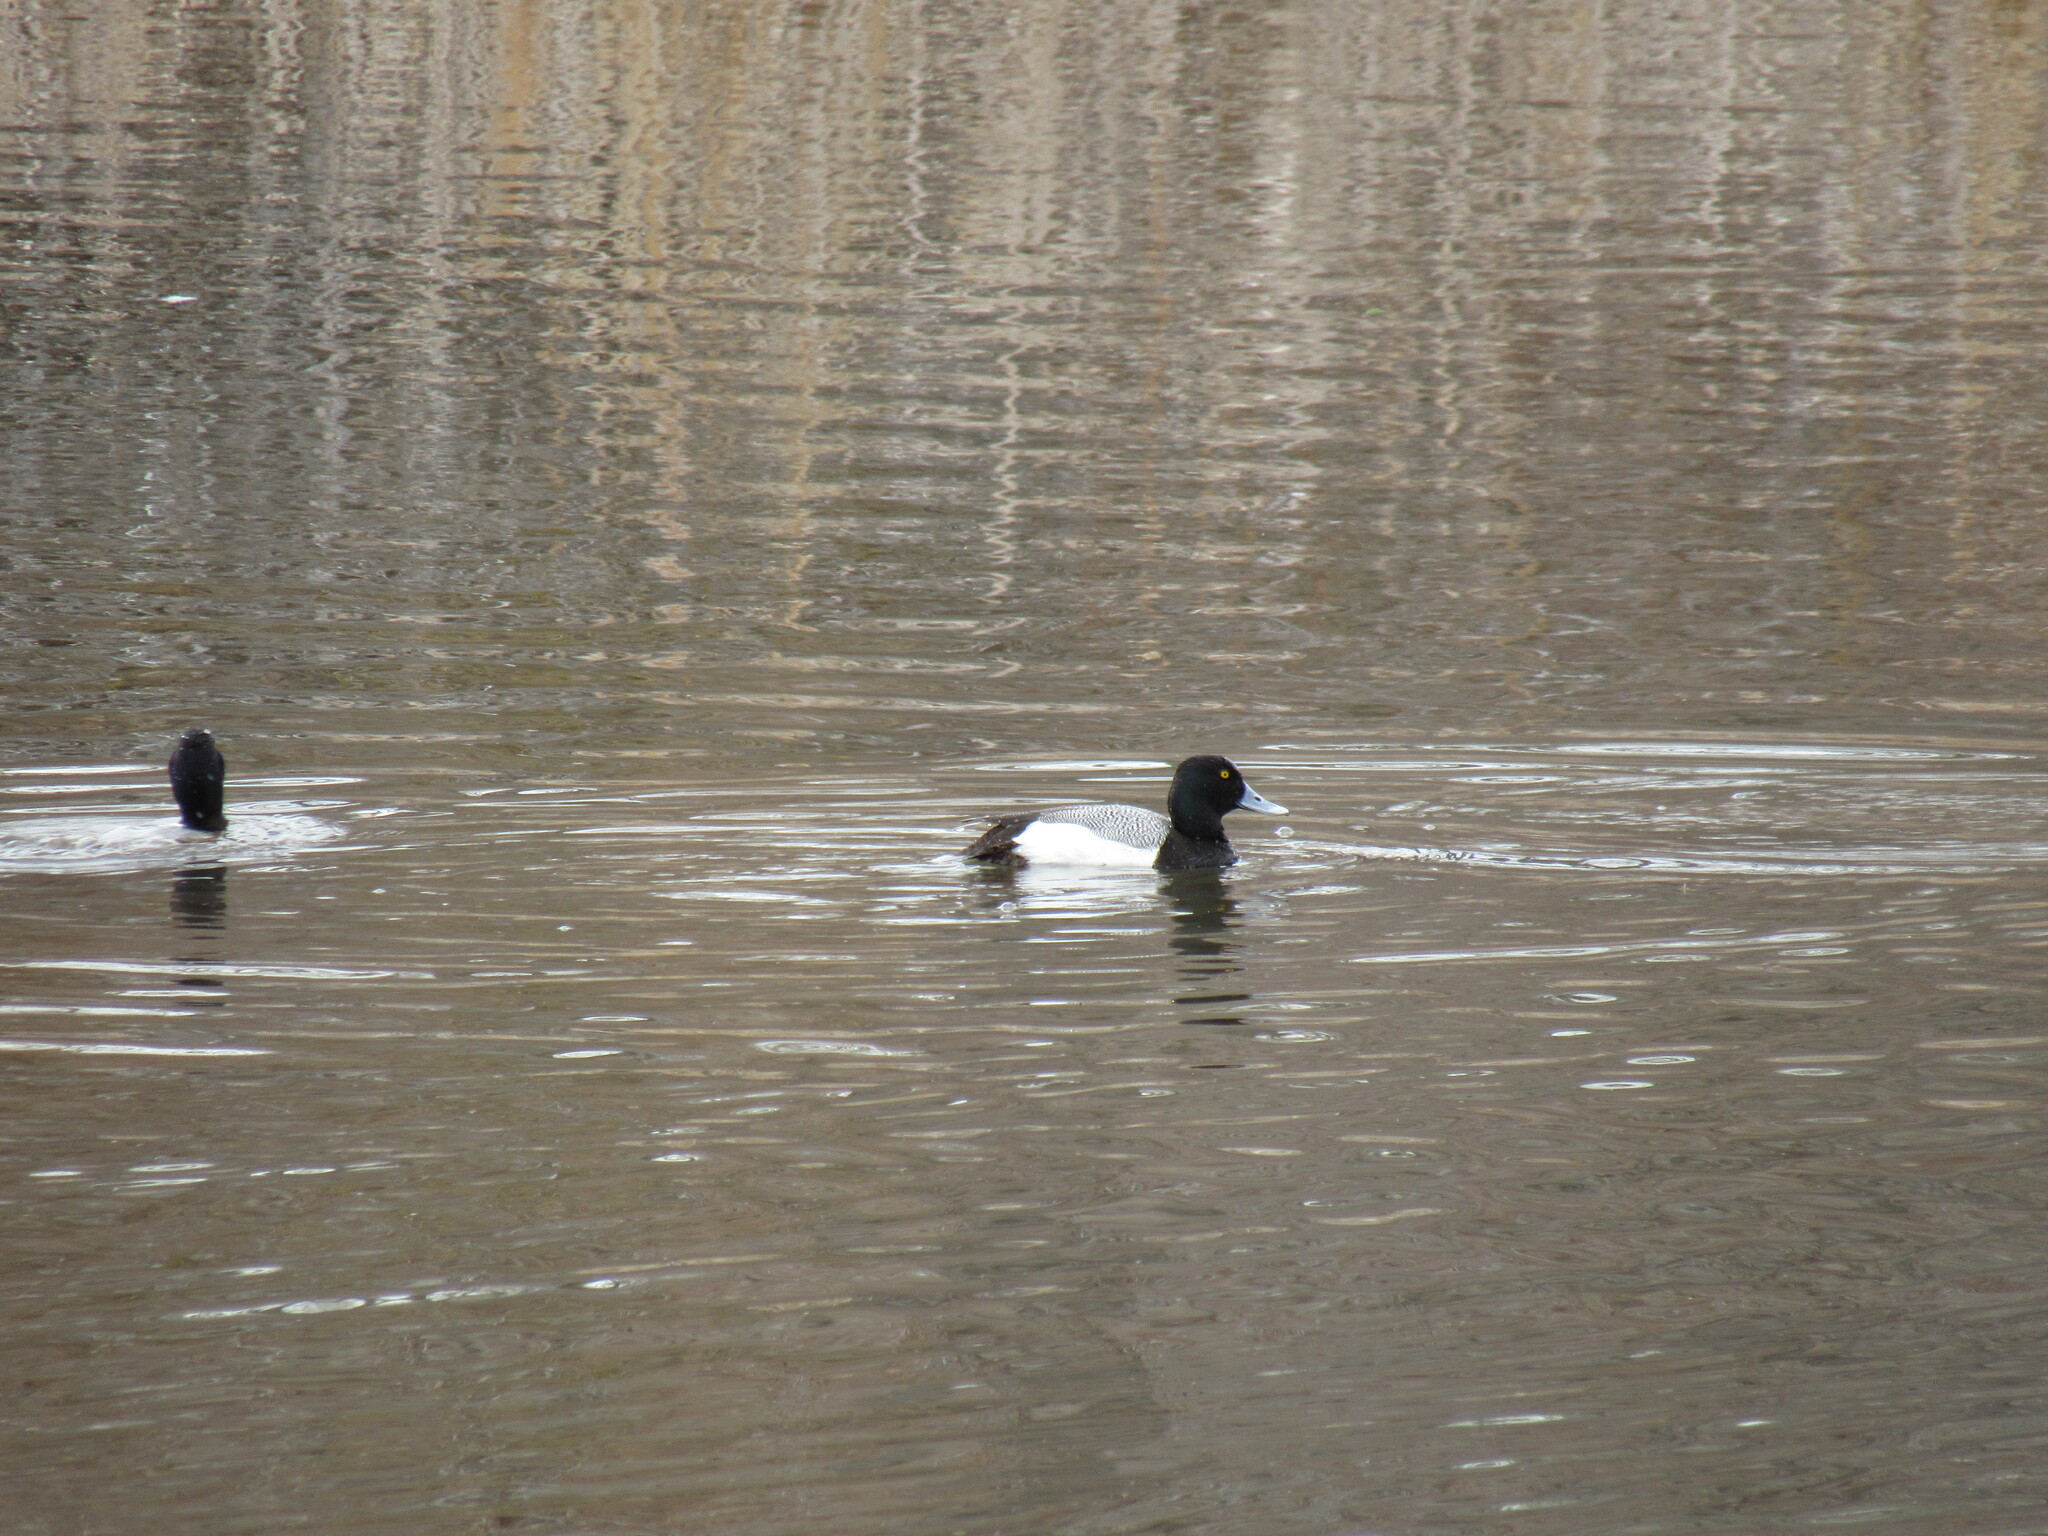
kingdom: Animalia
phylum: Chordata
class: Aves
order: Anseriformes
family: Anatidae
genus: Aythya
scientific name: Aythya affinis
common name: Lesser scaup
